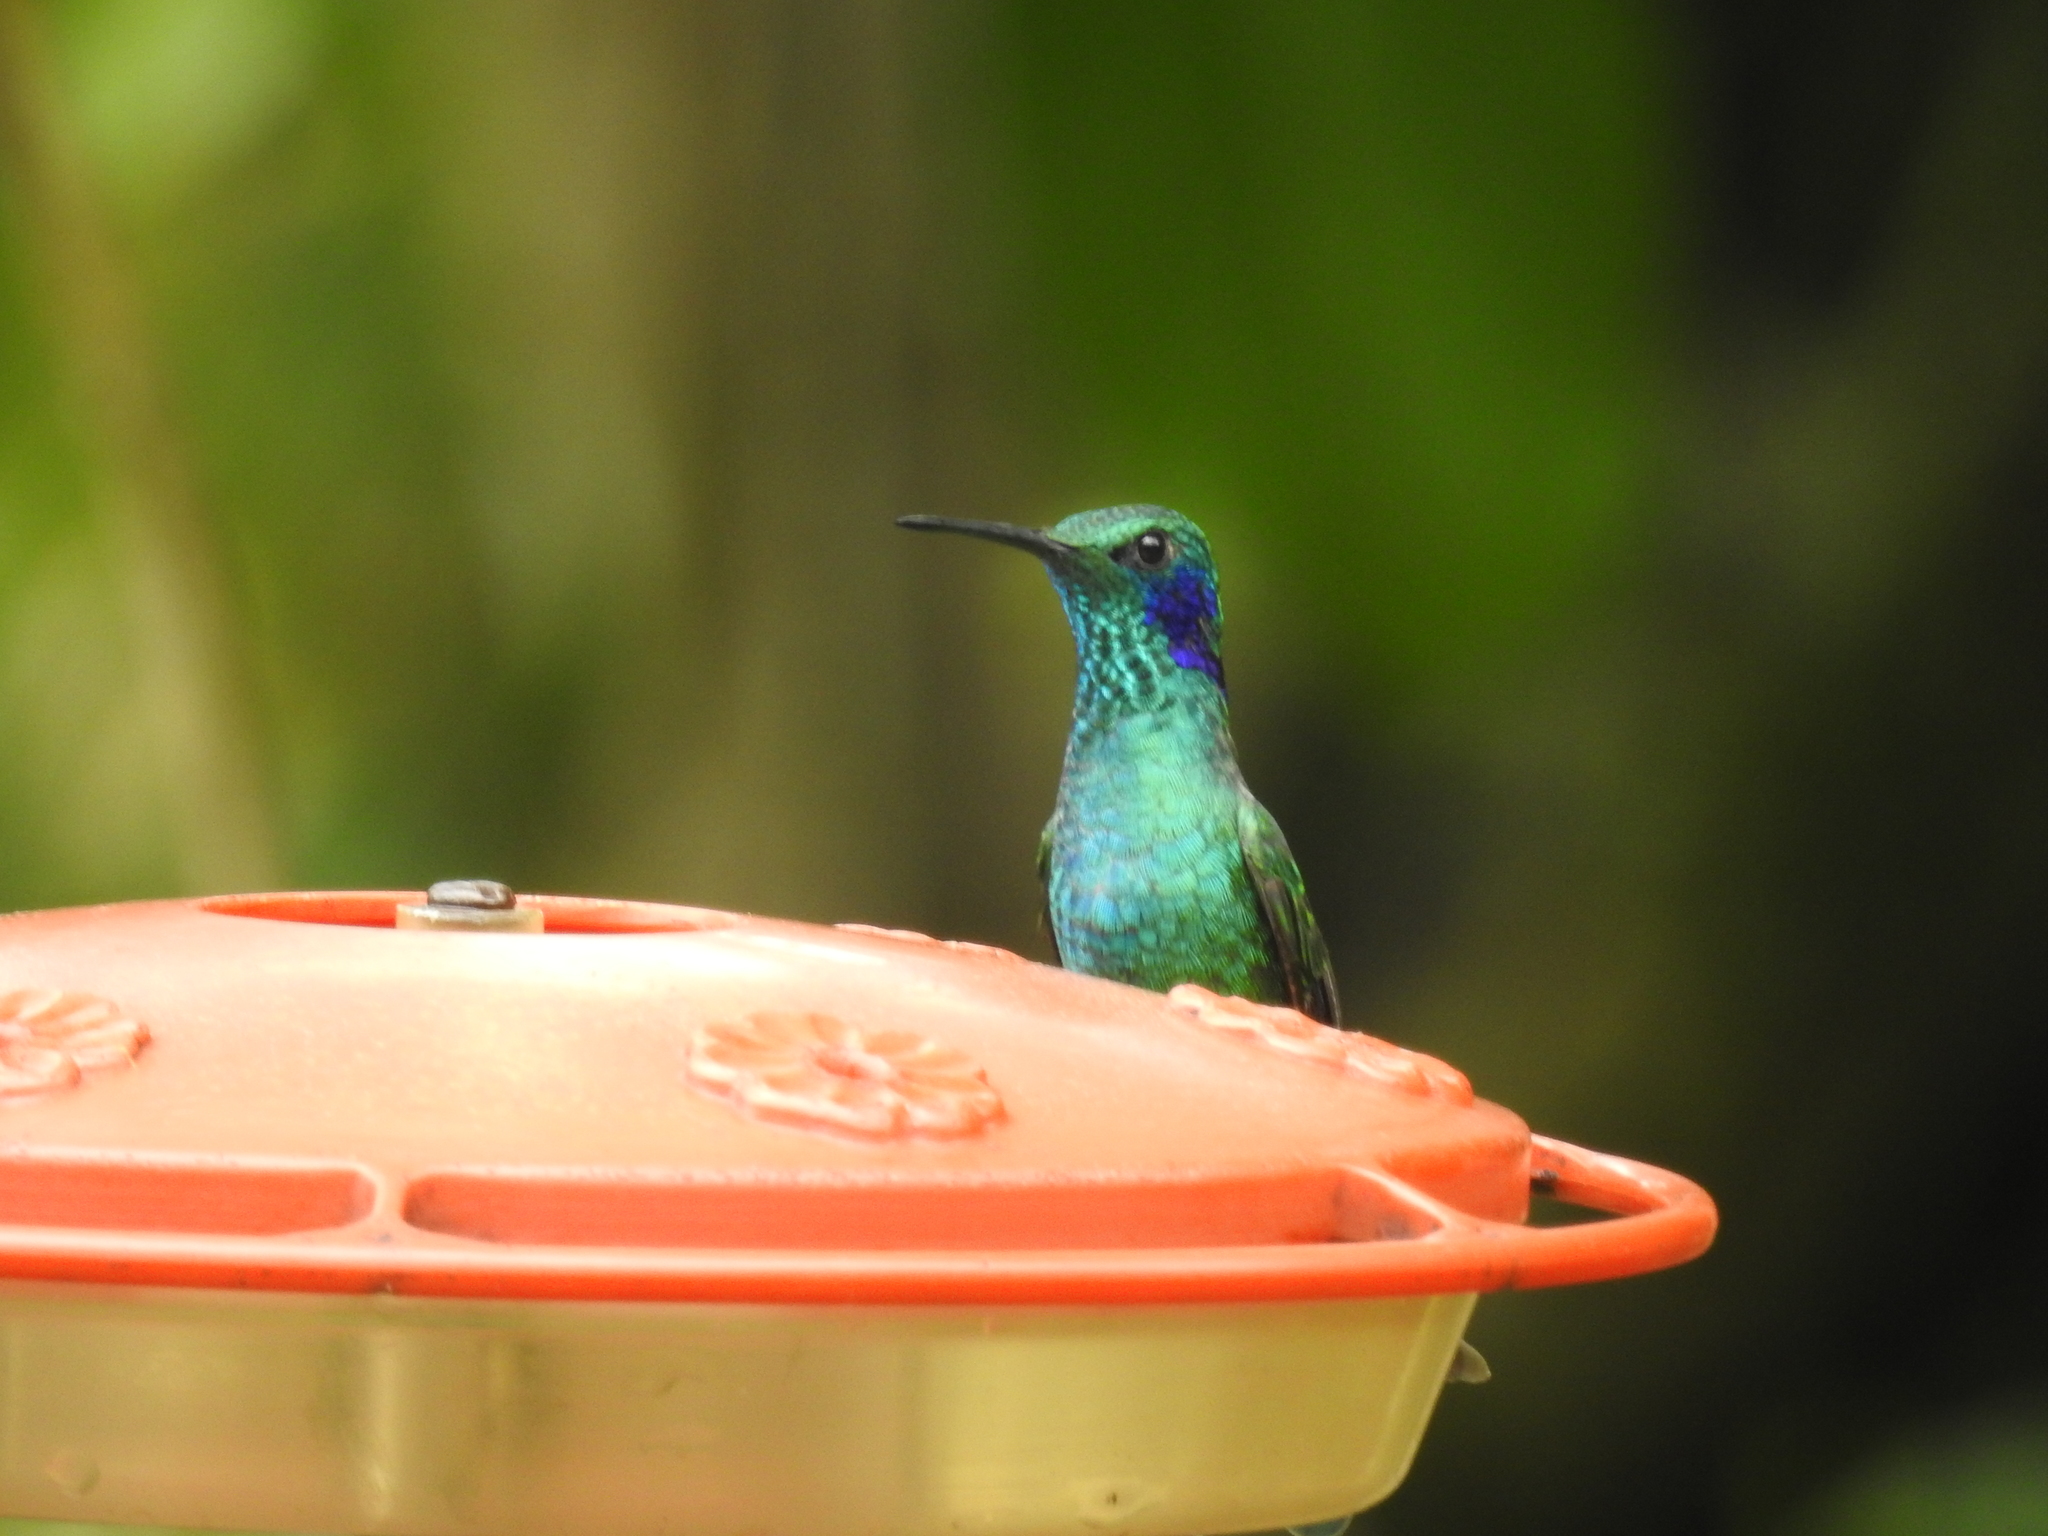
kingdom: Animalia
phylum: Chordata
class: Aves
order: Apodiformes
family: Trochilidae
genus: Colibri
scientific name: Colibri cyanotus
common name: Lesser violetear
